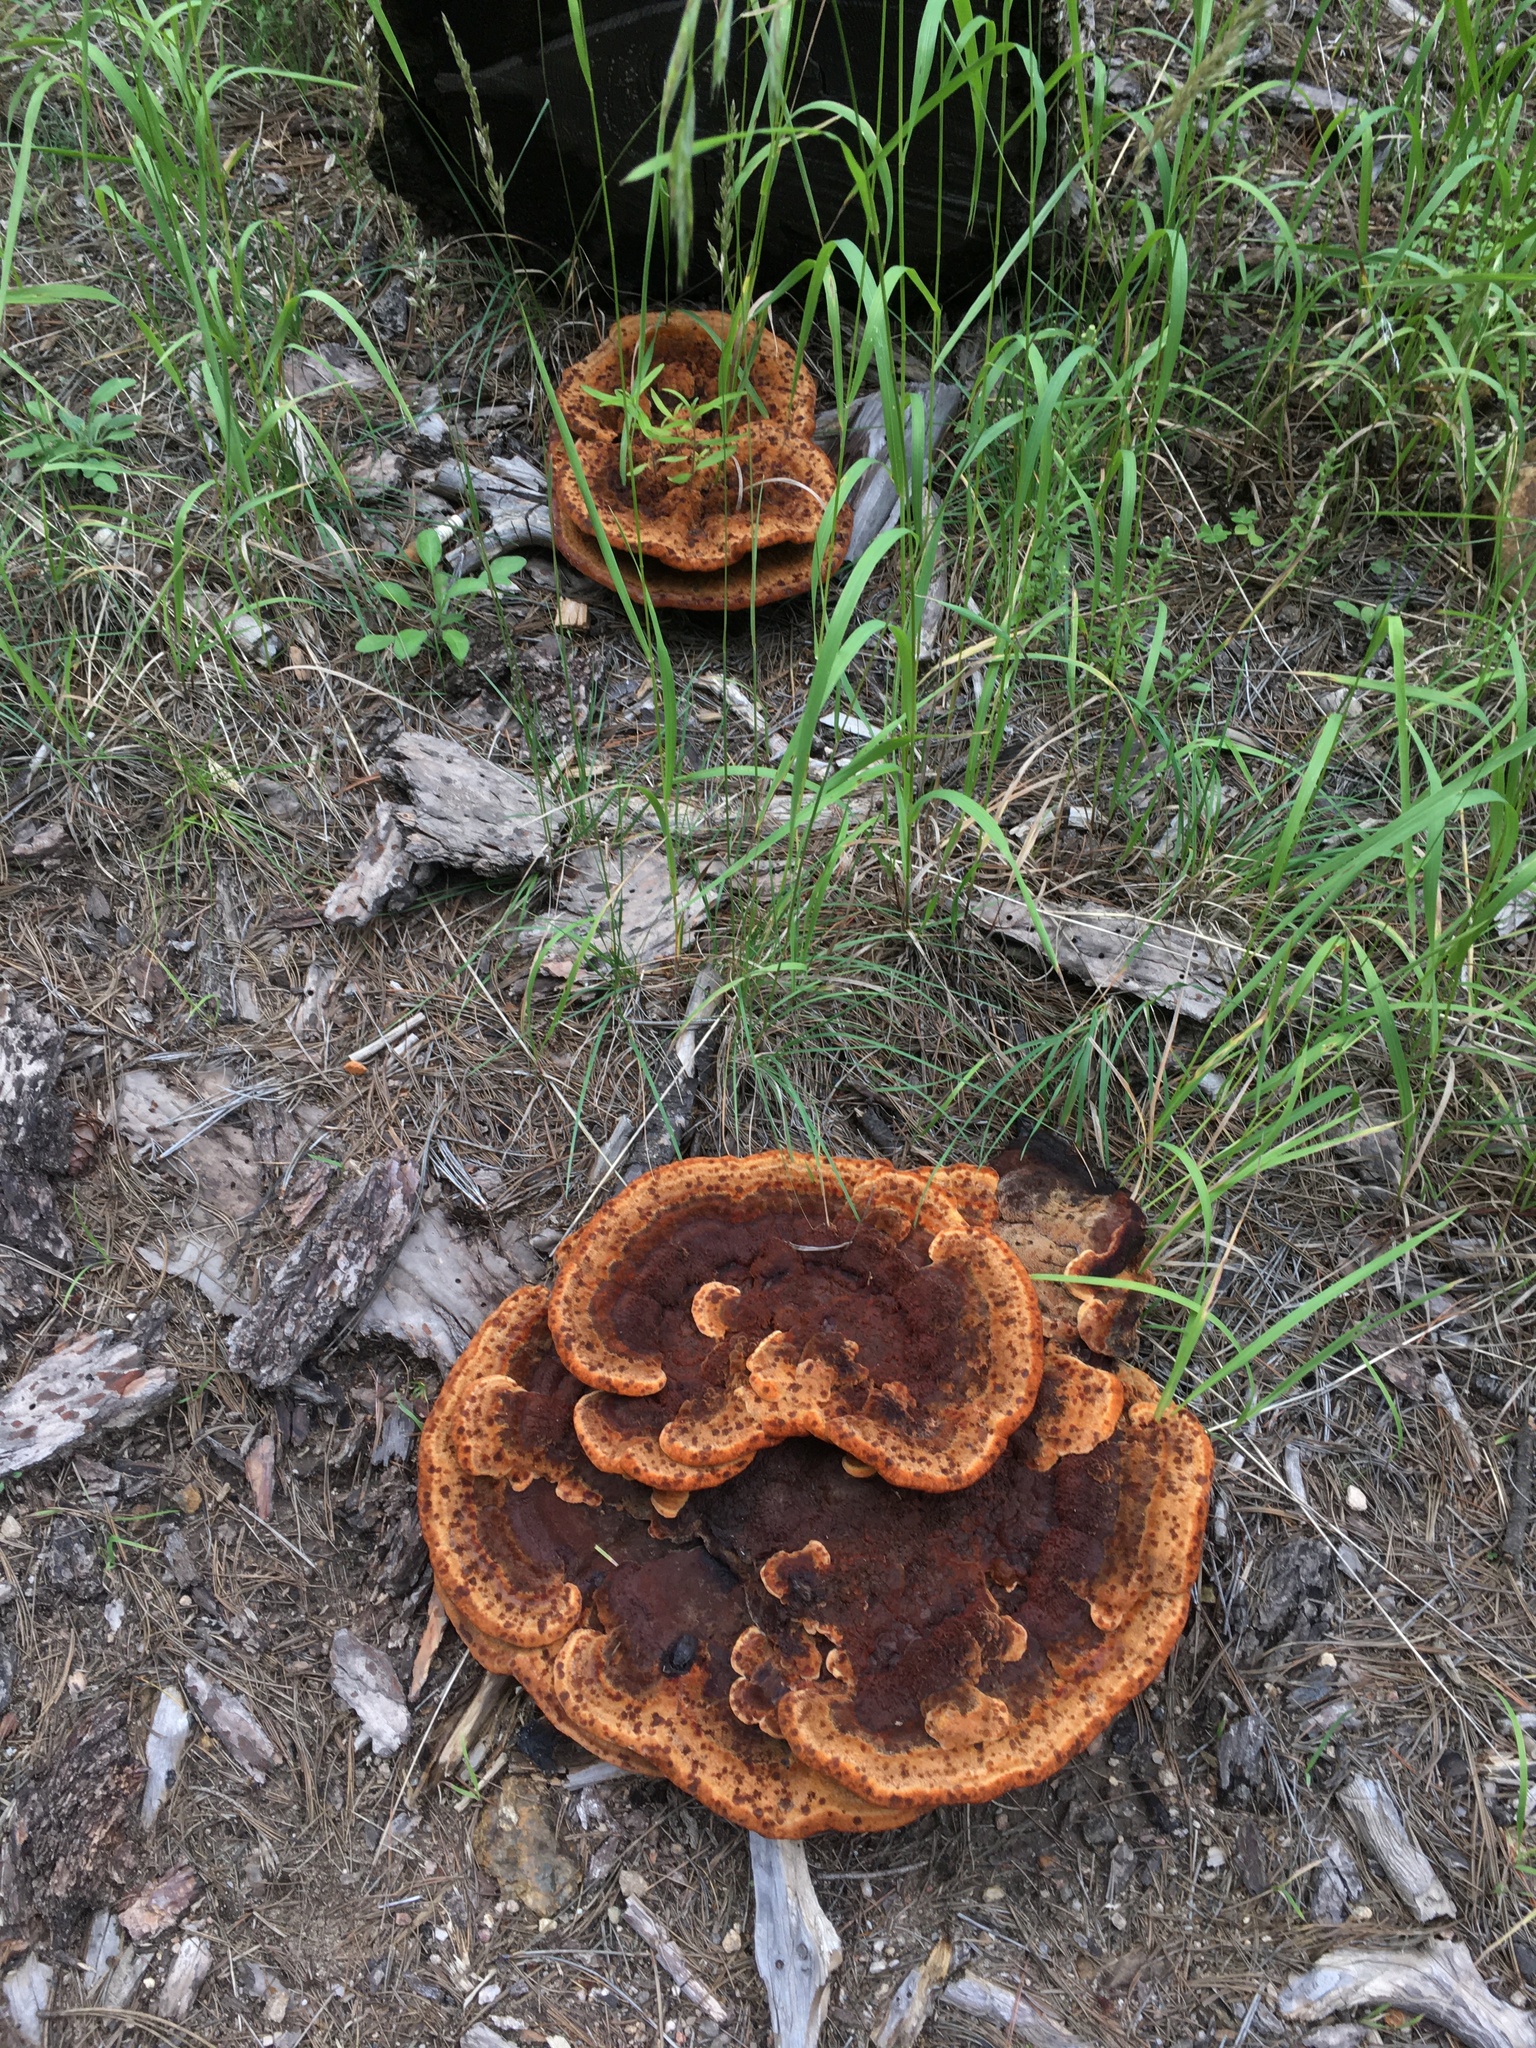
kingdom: Fungi
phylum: Basidiomycota
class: Agaricomycetes
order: Polyporales
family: Laetiporaceae
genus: Phaeolus
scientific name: Phaeolus schweinitzii
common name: Dyer's mazegill
